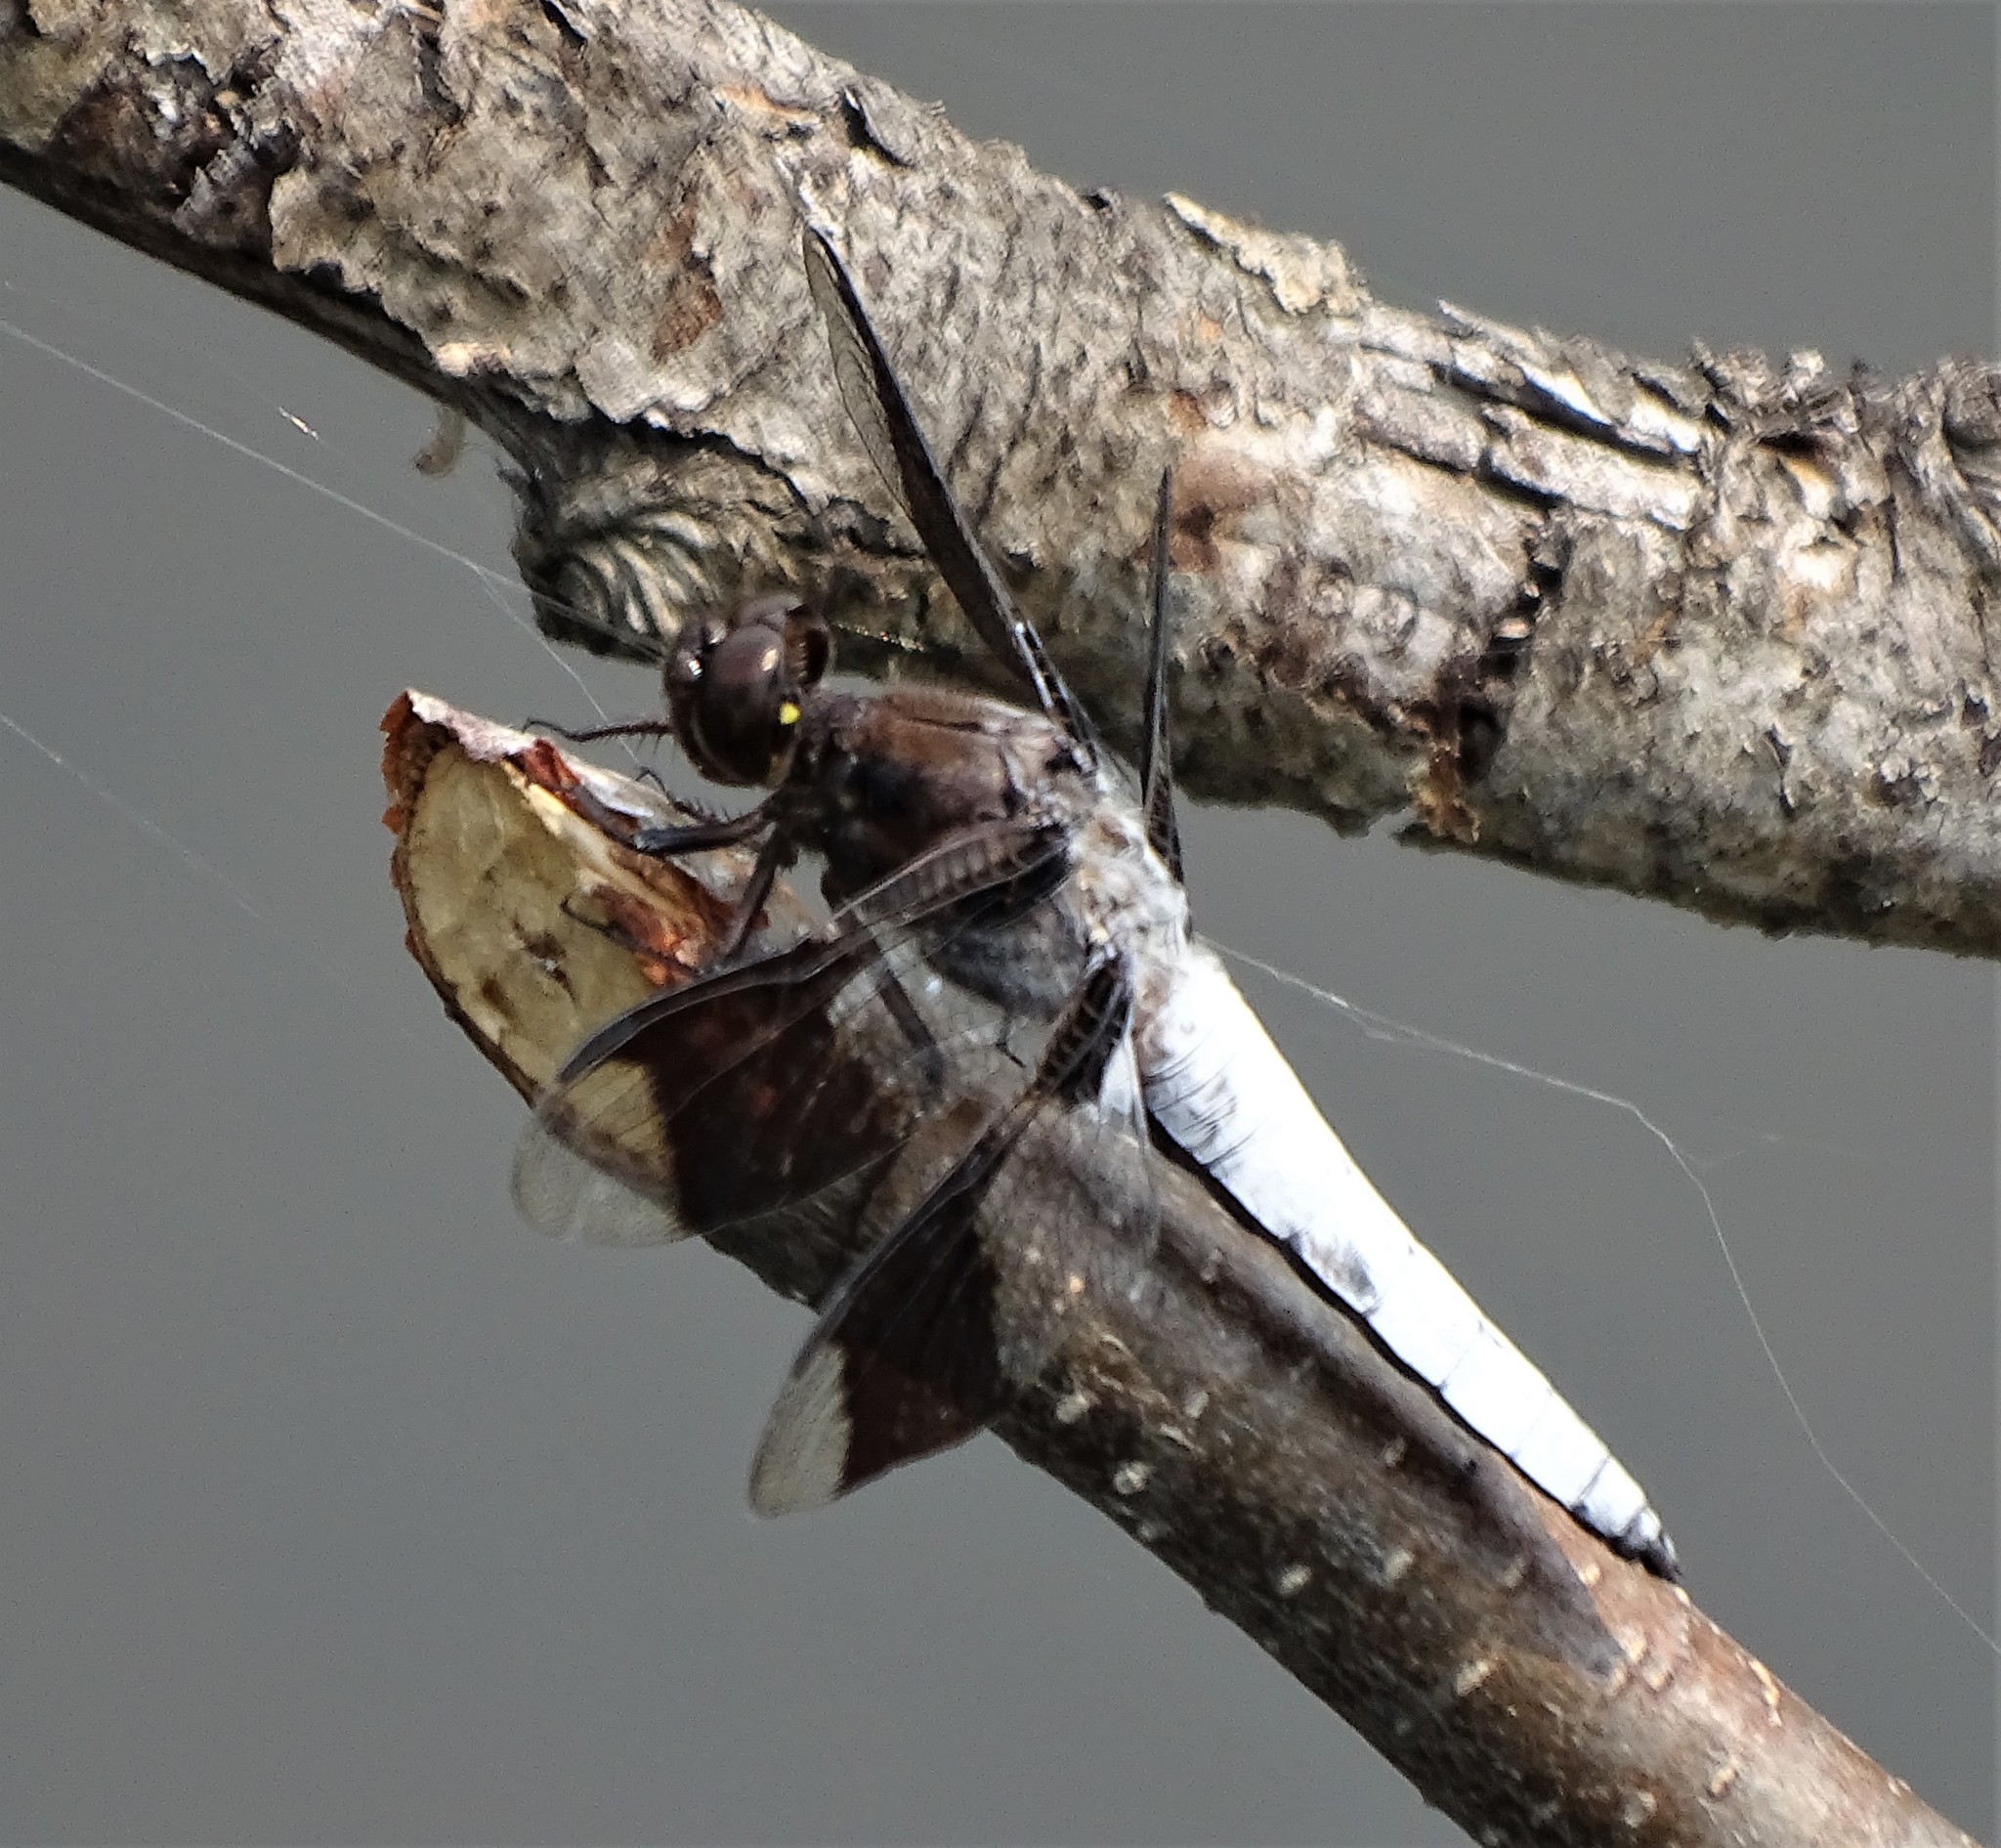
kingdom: Animalia
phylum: Arthropoda
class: Insecta
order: Odonata
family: Libellulidae
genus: Plathemis
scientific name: Plathemis lydia
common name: Common whitetail
